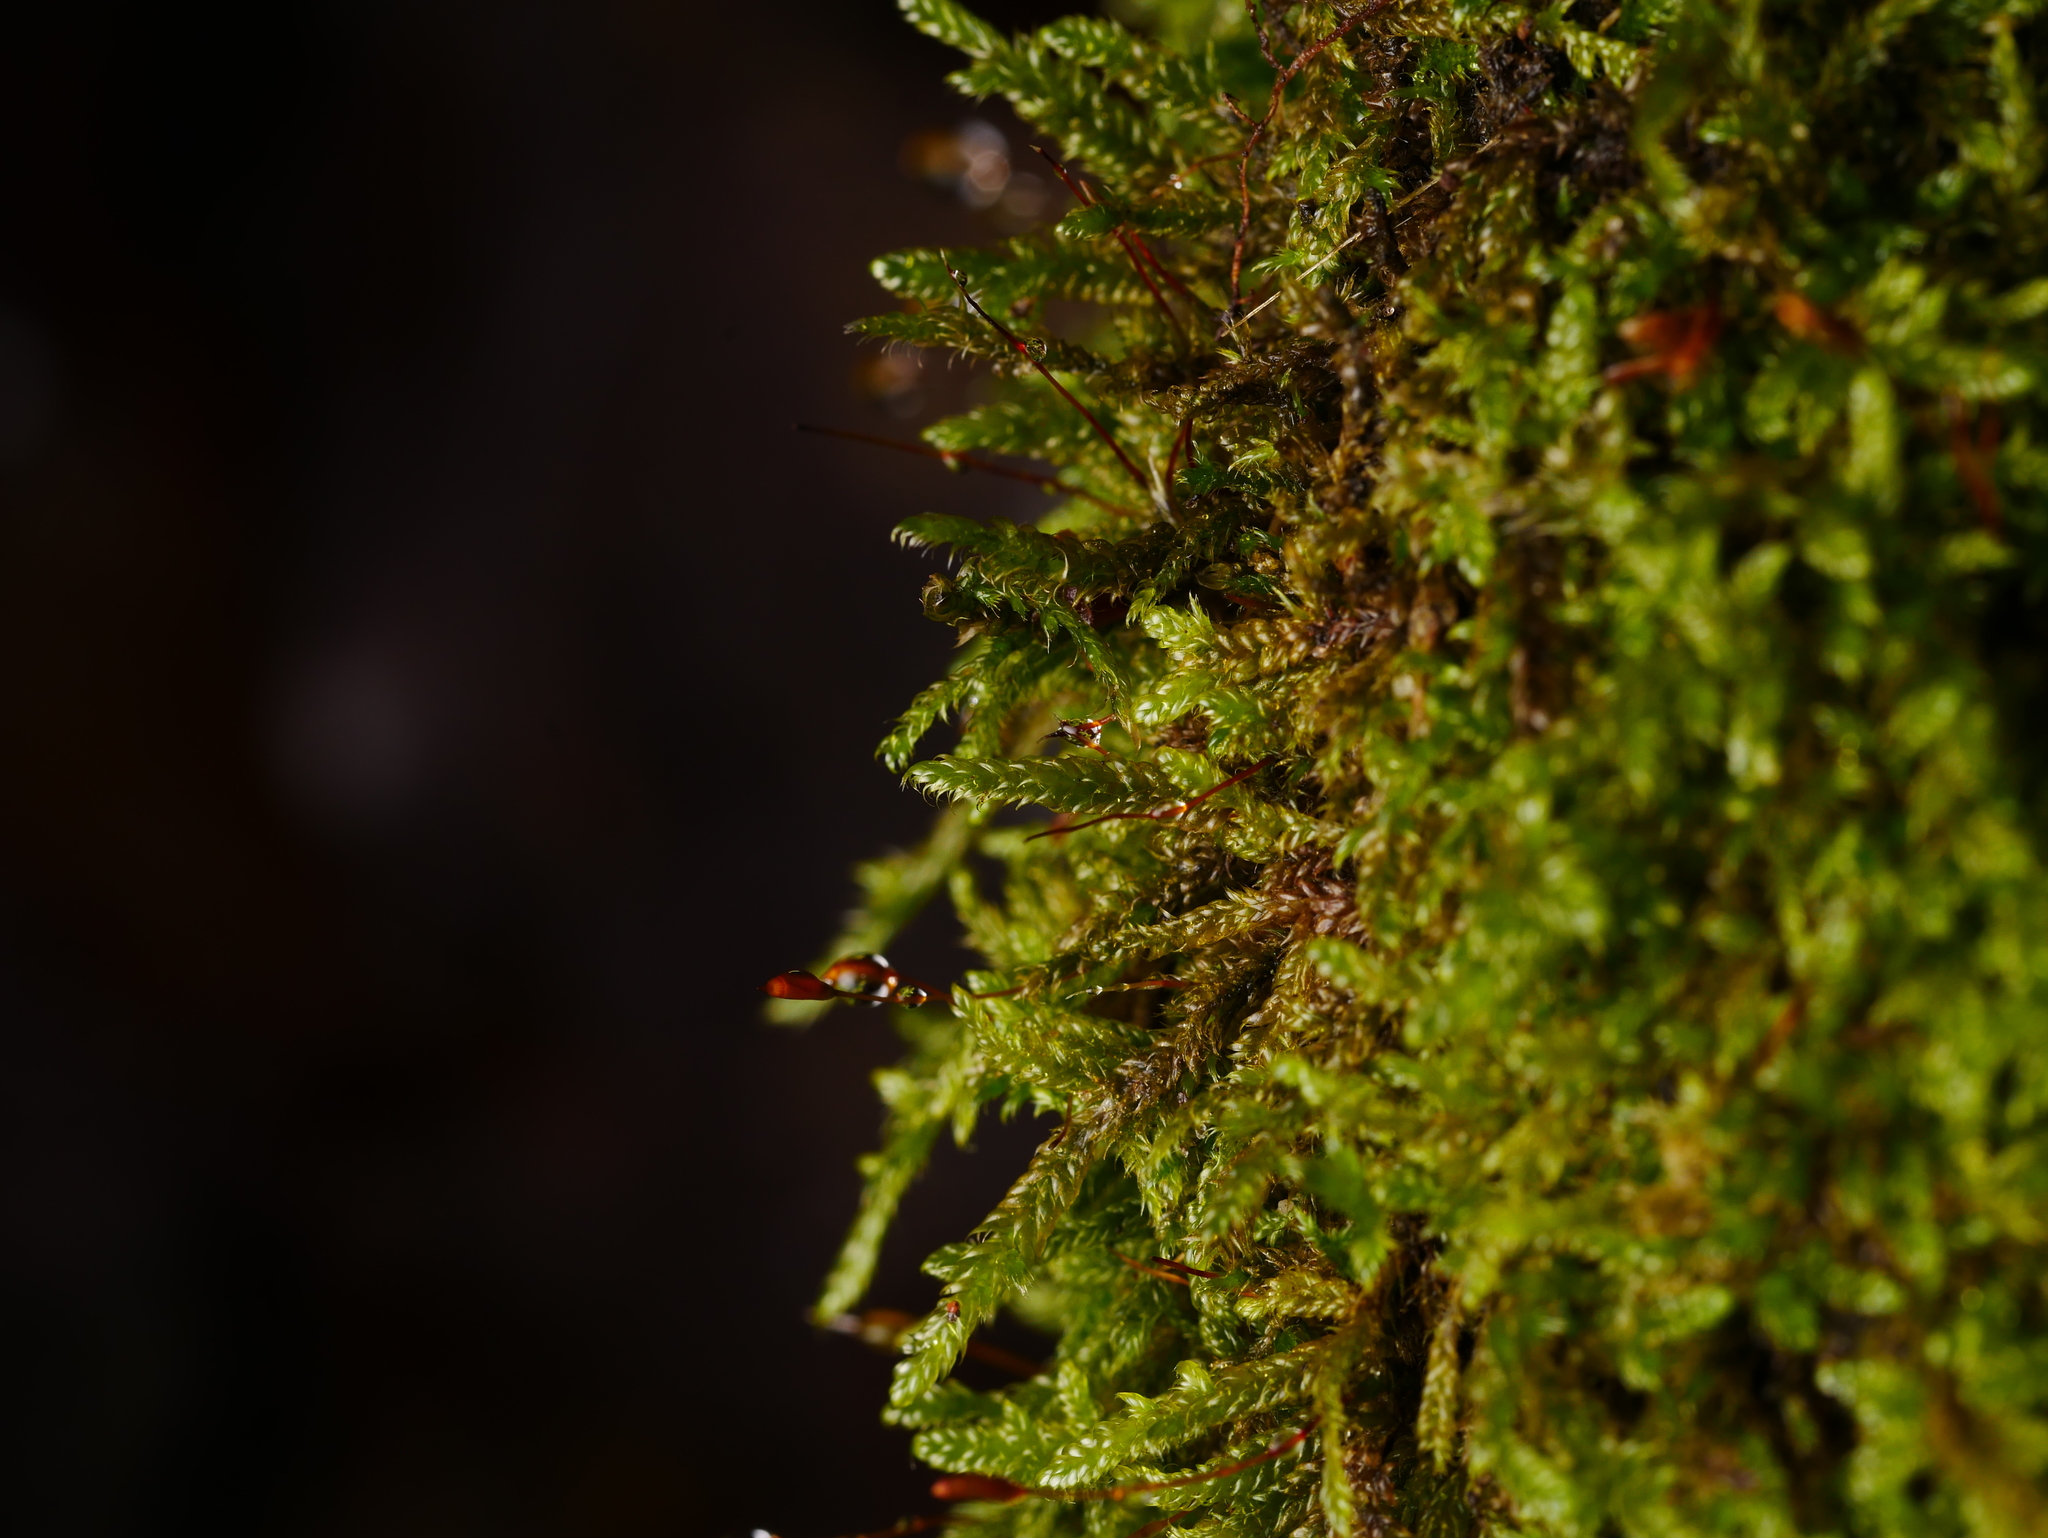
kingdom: Plantae
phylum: Bryophyta
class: Bryopsida
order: Hypnales
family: Hypnaceae
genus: Hypnum
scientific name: Hypnum cupressiforme
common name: Cypress-leaved plait-moss
